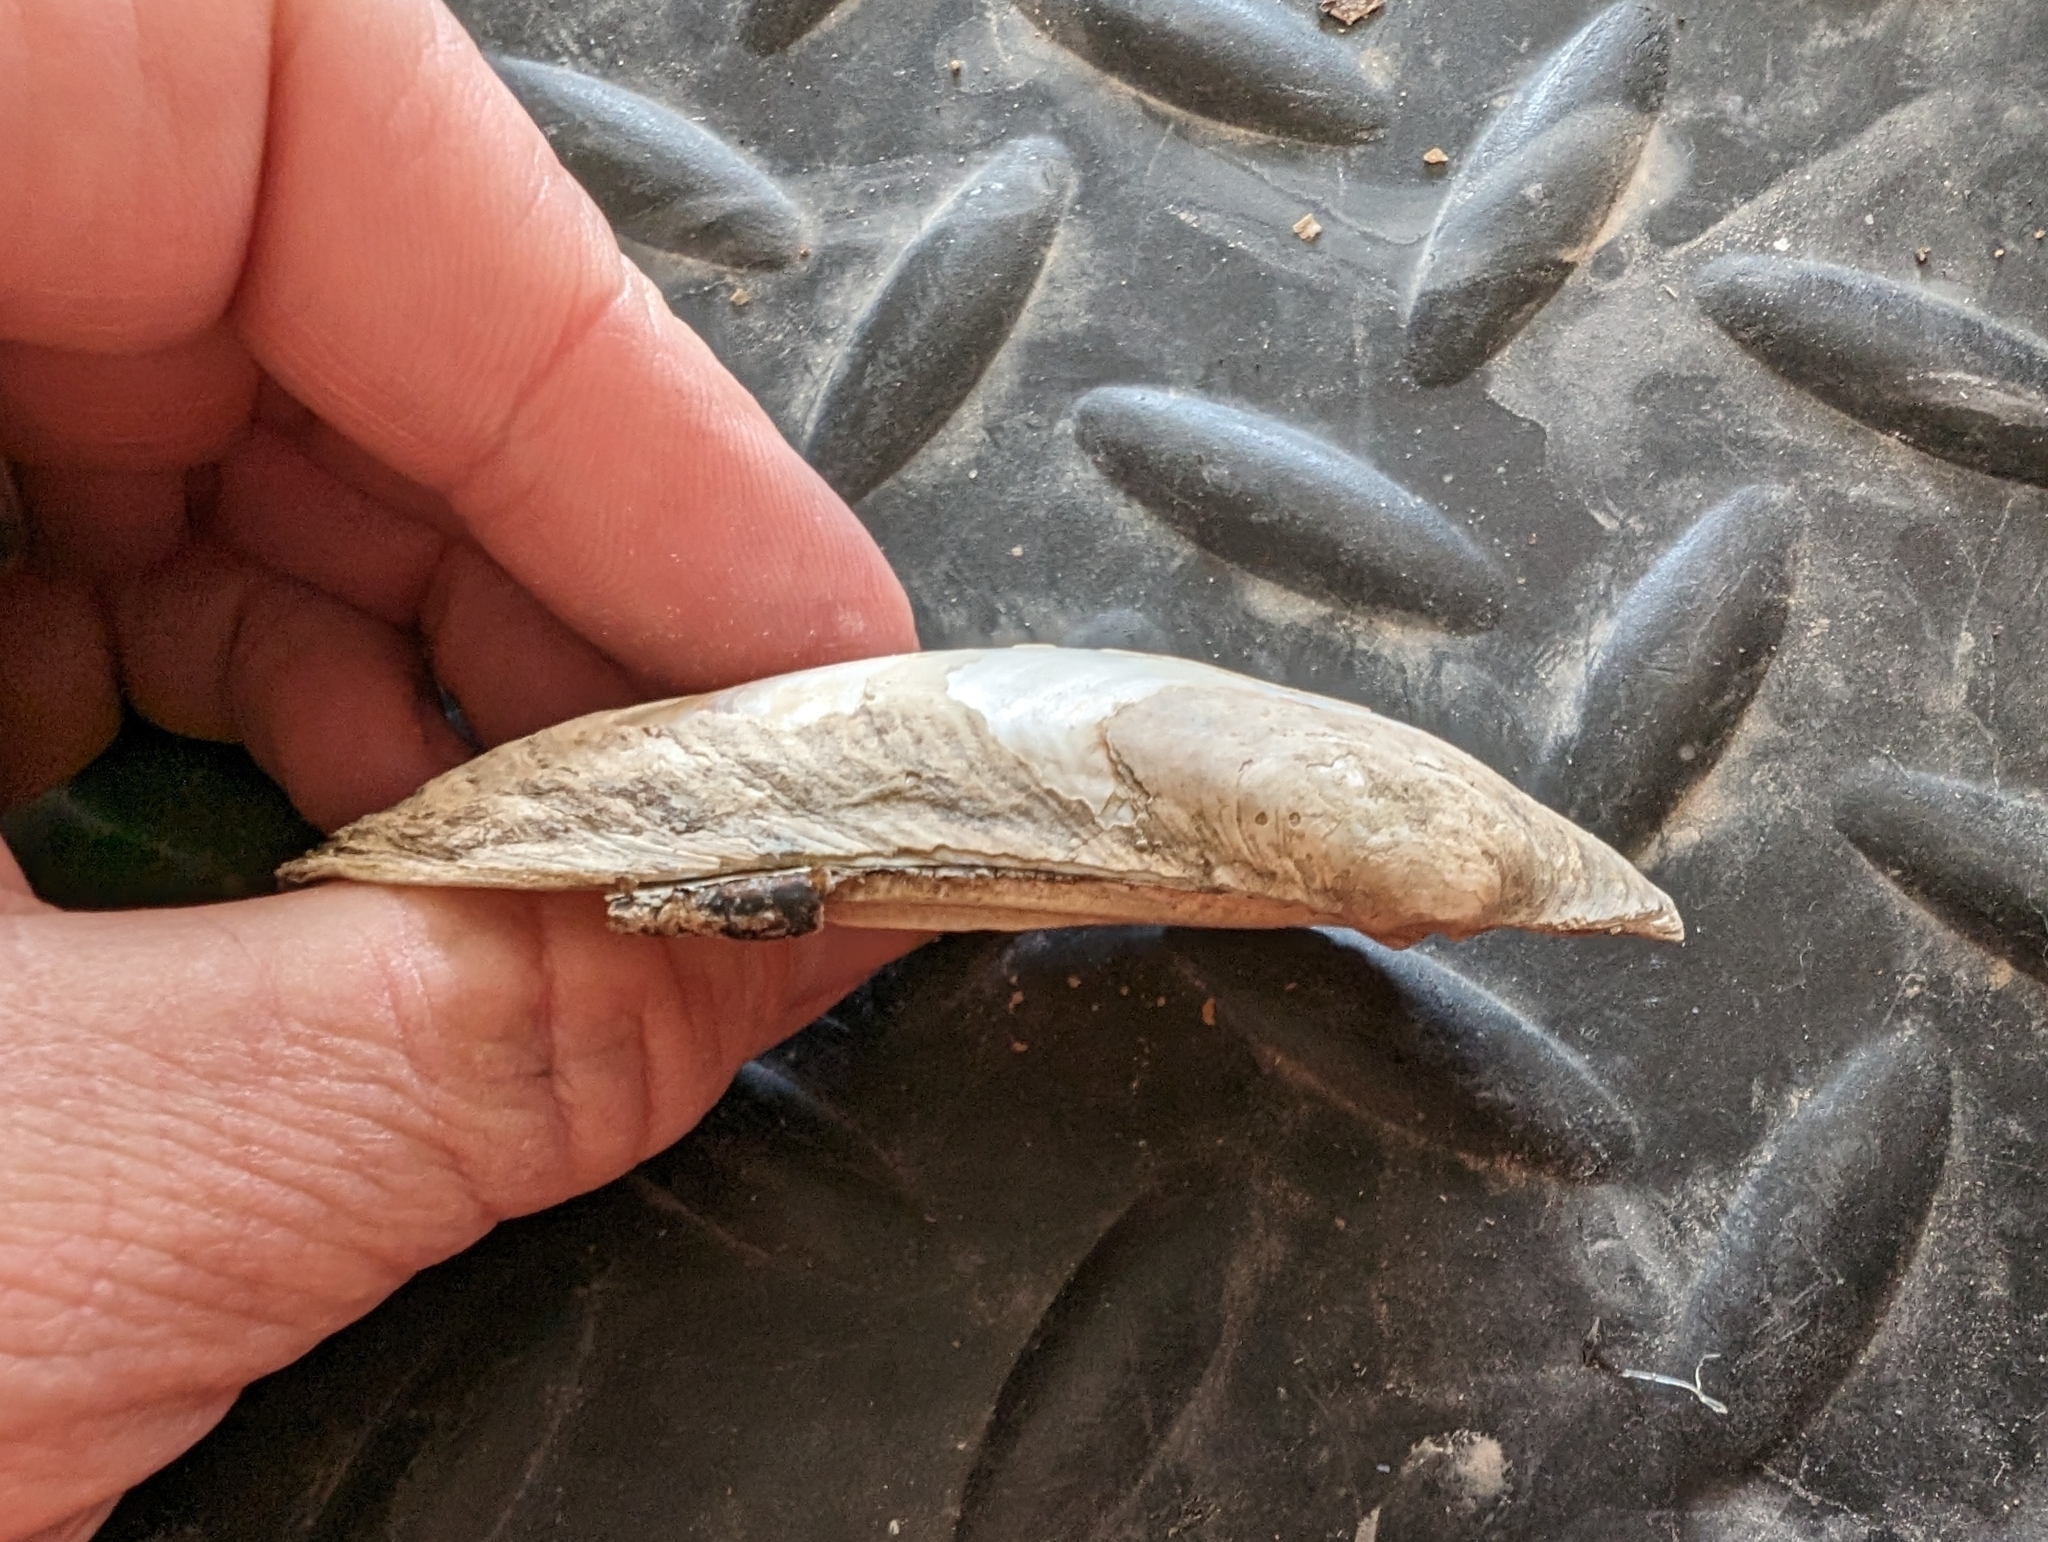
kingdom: Animalia
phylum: Mollusca
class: Bivalvia
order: Unionida
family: Unionidae
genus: Lampsilis
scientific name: Lampsilis siliquoidea
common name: Fatmucket
